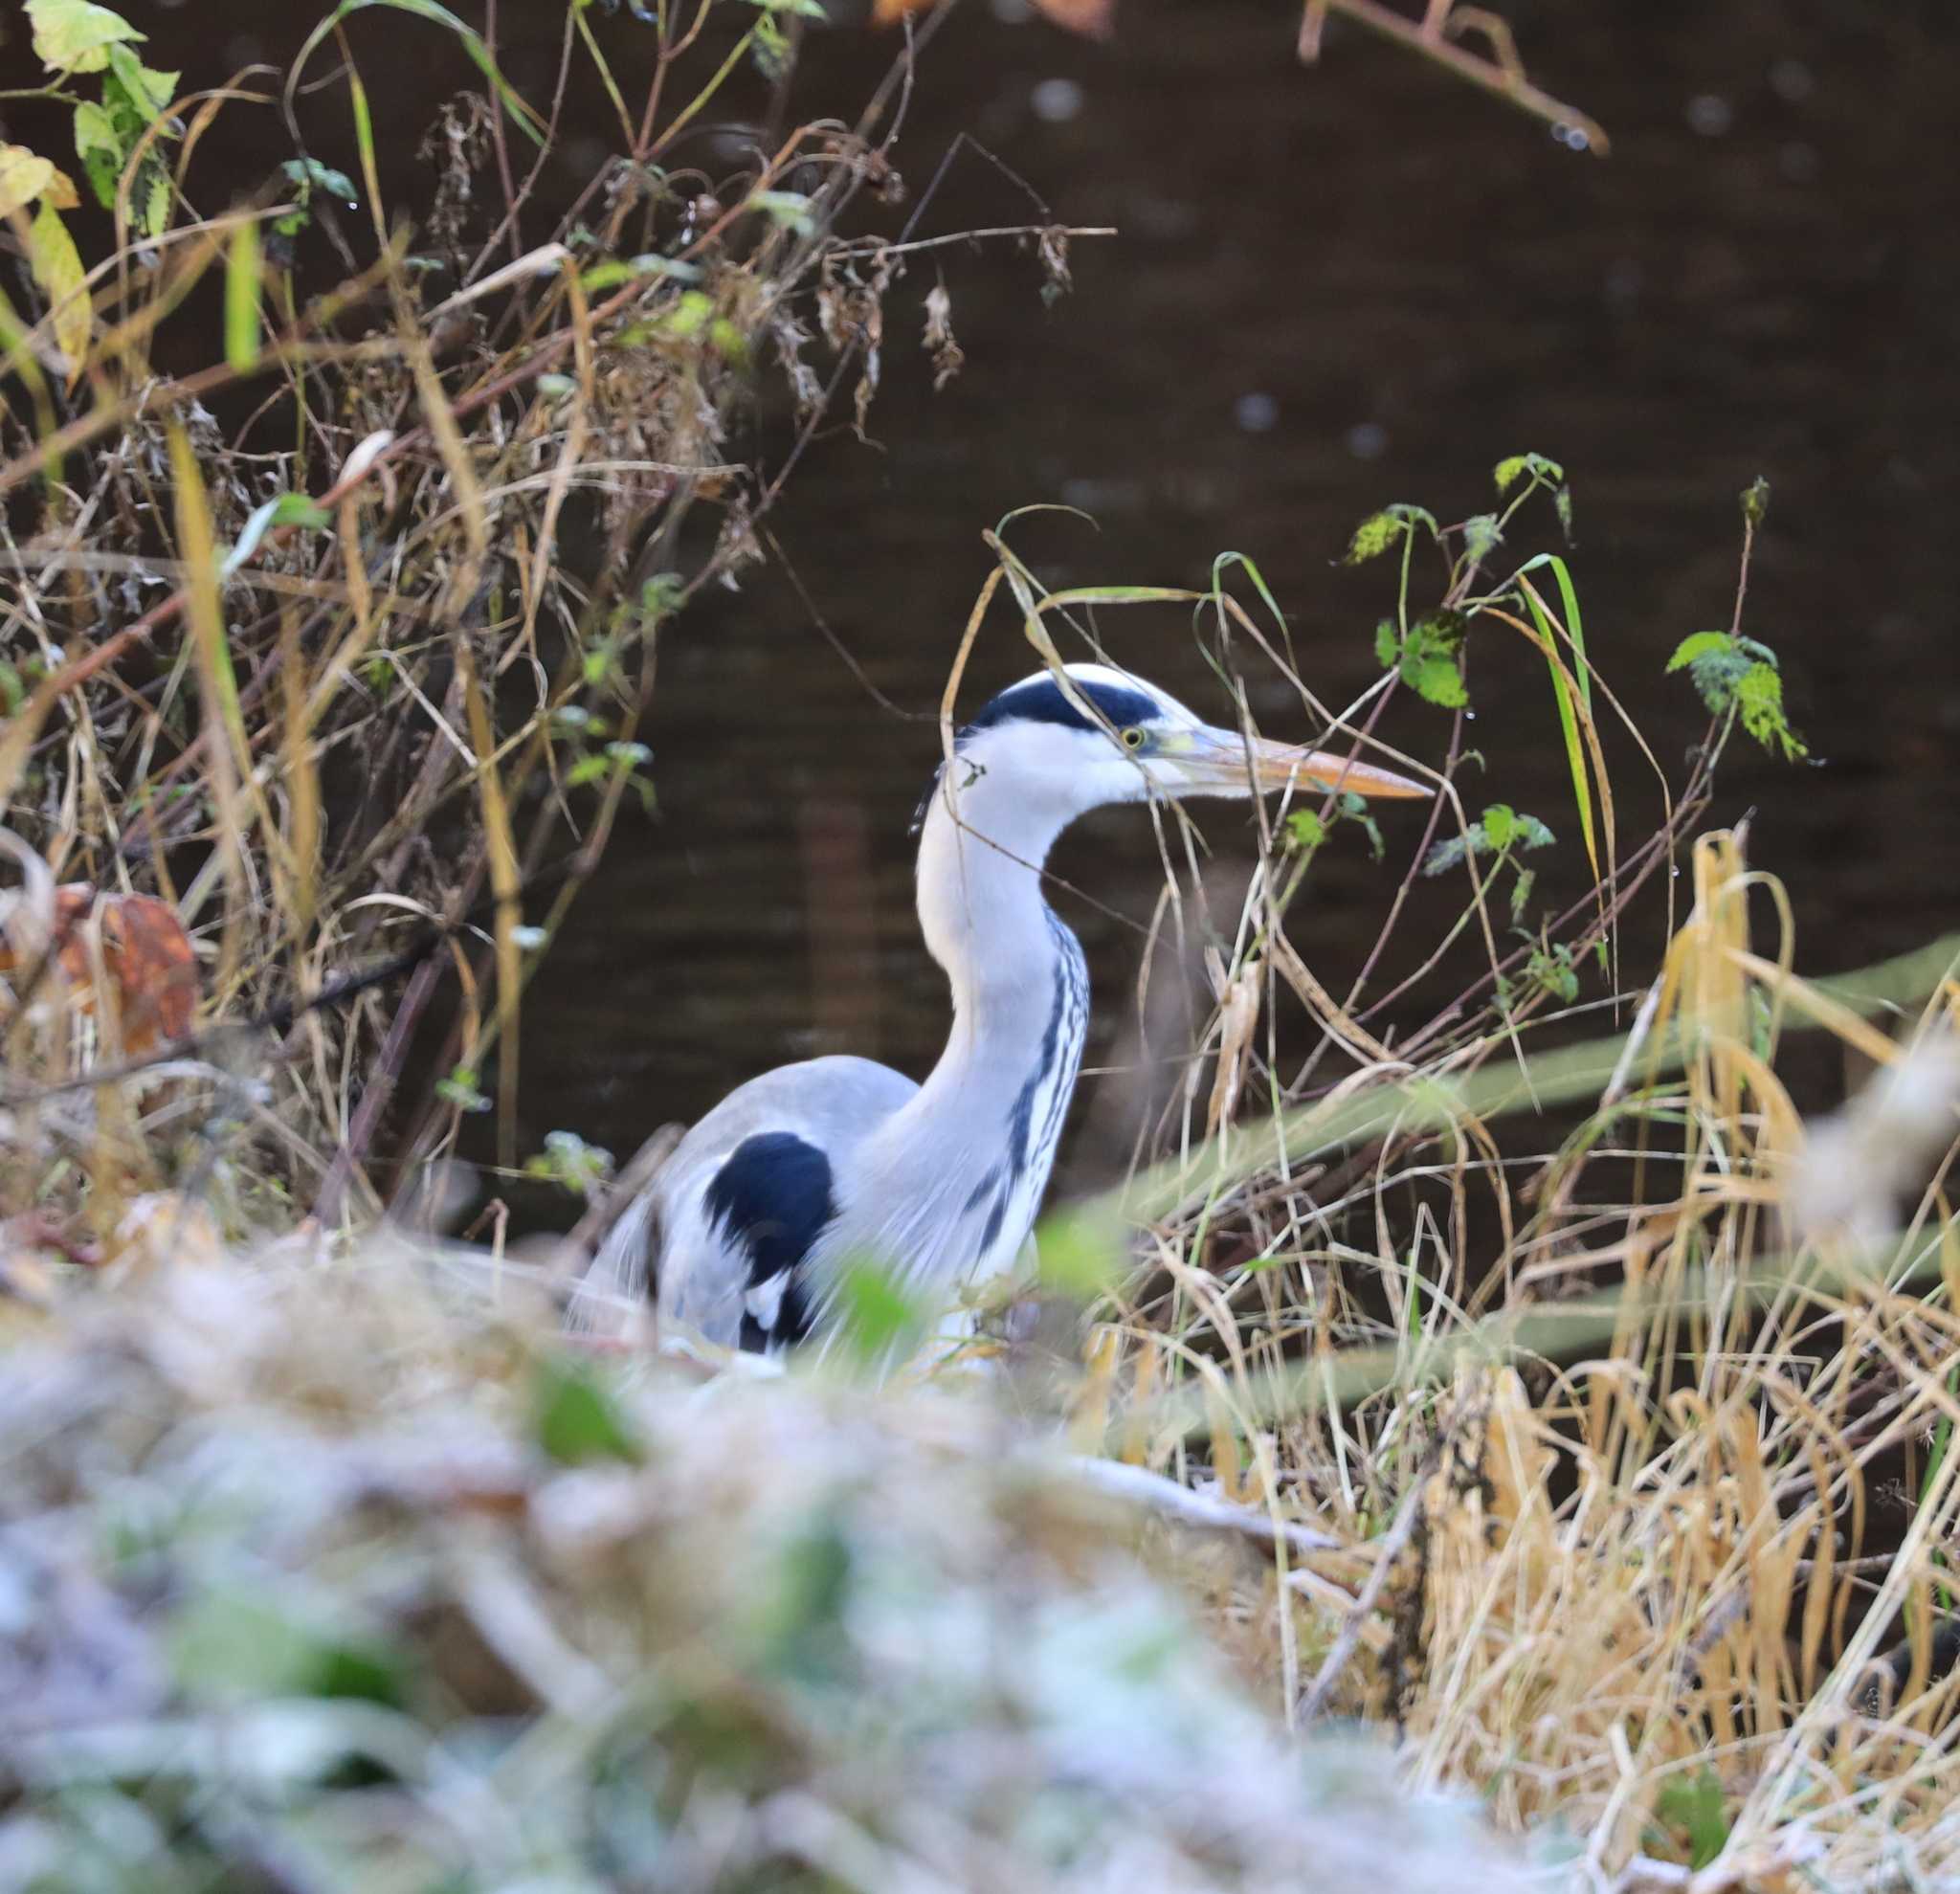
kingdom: Animalia
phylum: Chordata
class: Aves
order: Pelecaniformes
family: Ardeidae
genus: Ardea
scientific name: Ardea cinerea
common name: Grey heron
